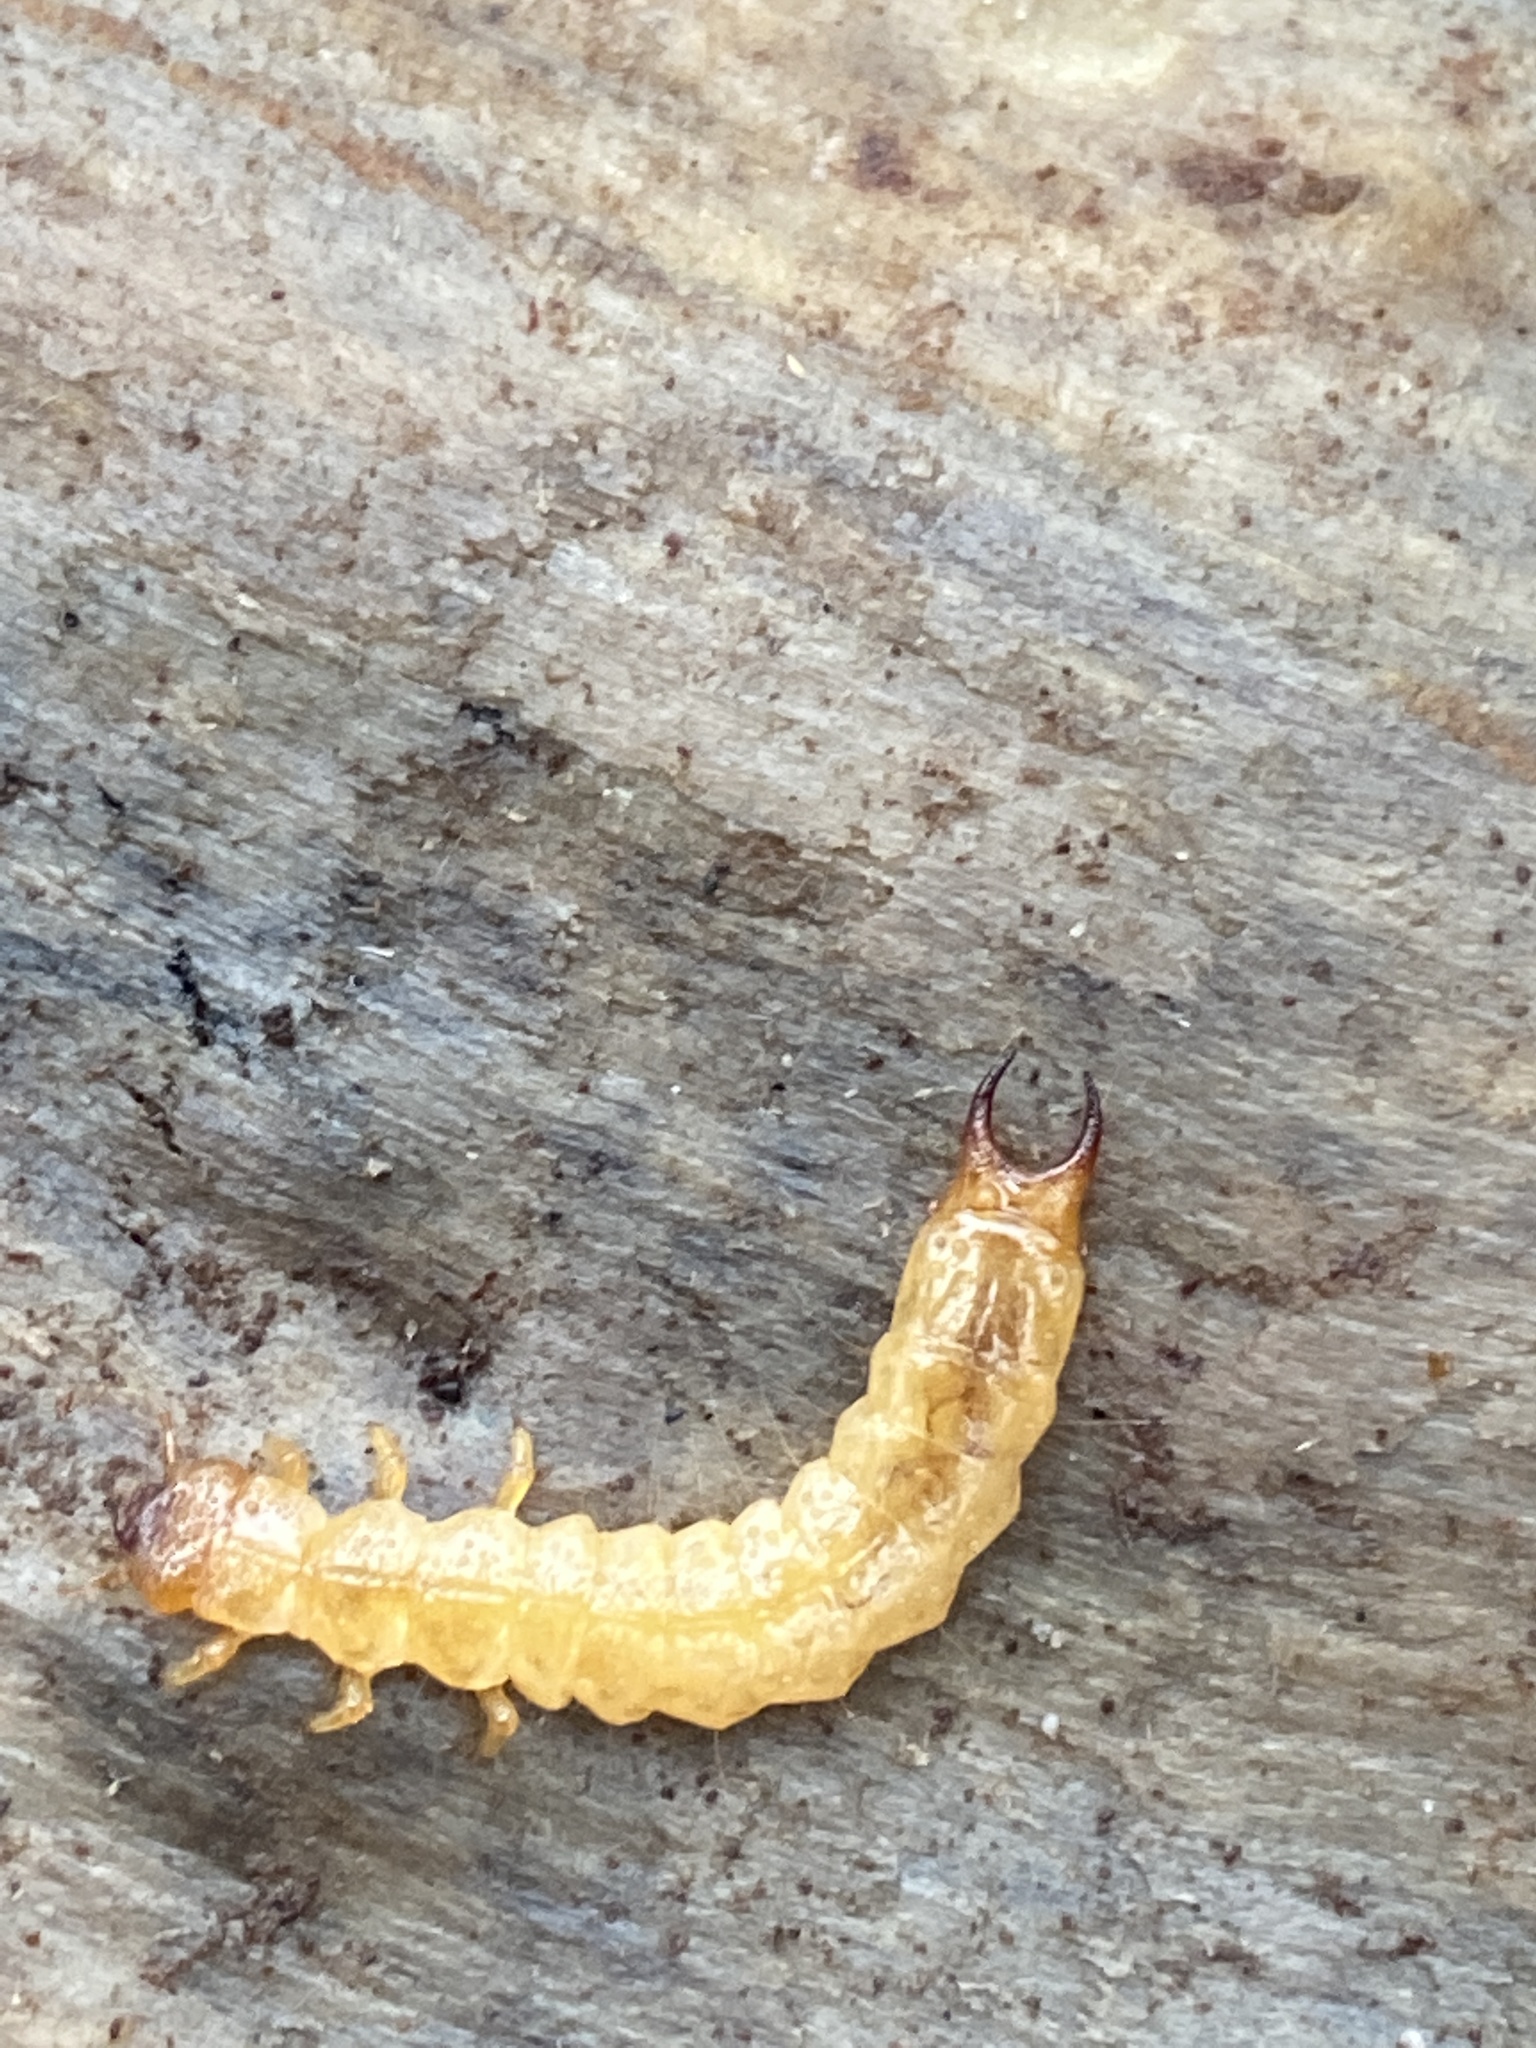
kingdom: Animalia
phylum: Arthropoda
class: Insecta
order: Coleoptera
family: Pyrochroidae
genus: Schizotus
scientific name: Schizotus pectinicornis
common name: Scarce cardinal beetle
